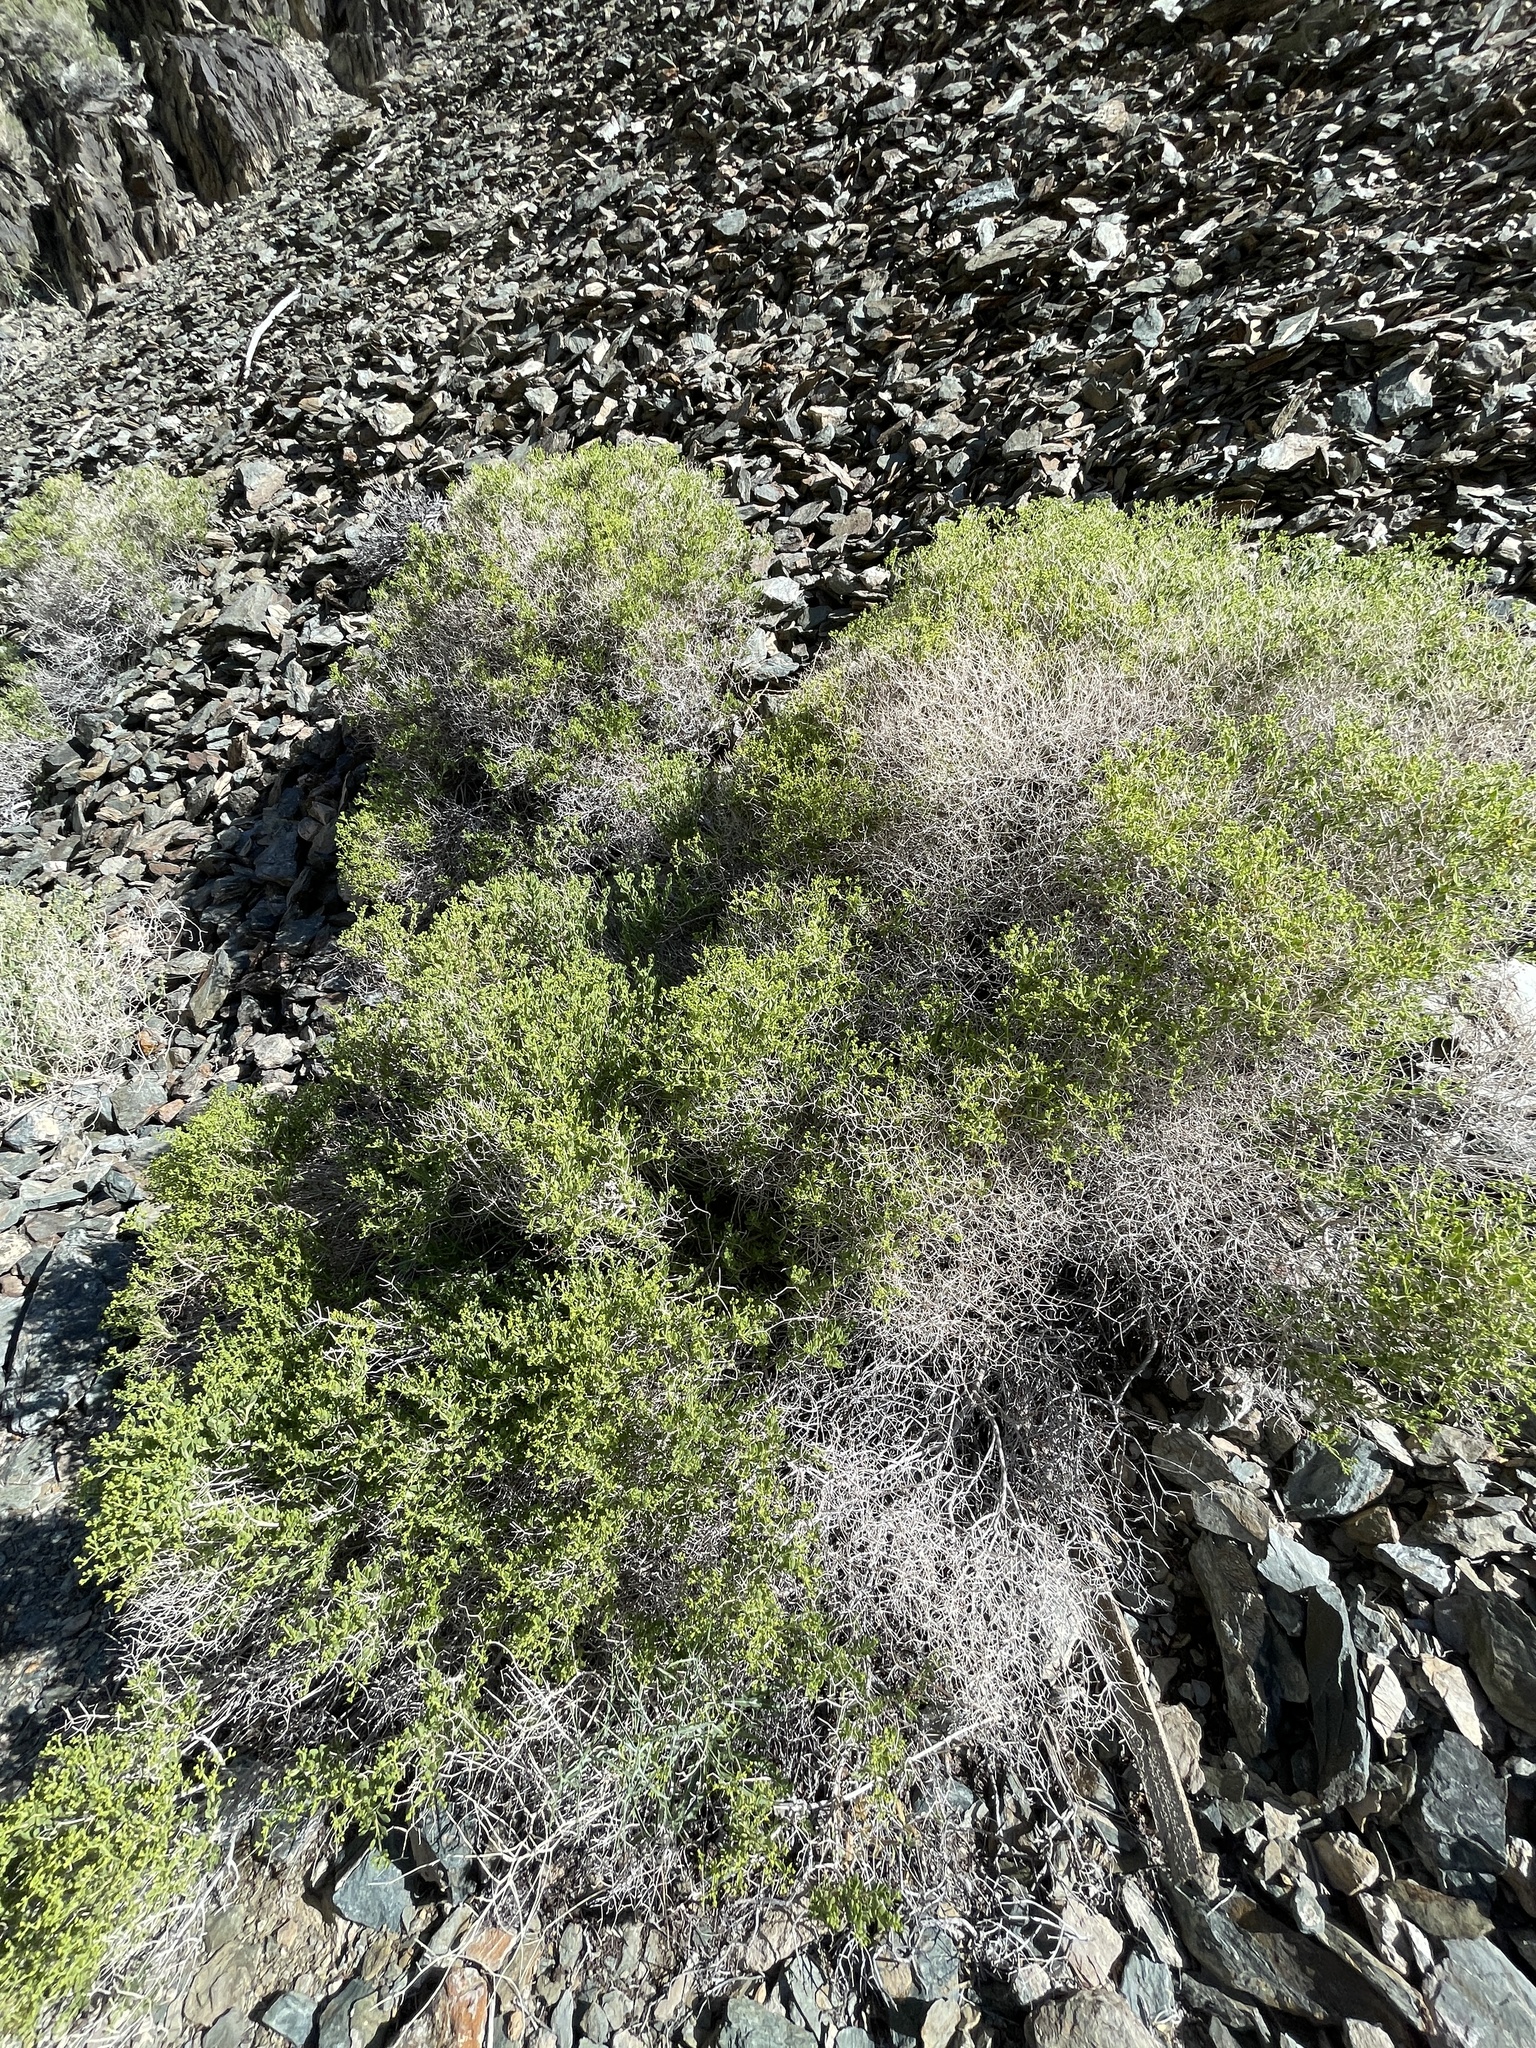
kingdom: Plantae
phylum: Tracheophyta
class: Magnoliopsida
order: Caryophyllales
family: Polygonaceae
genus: Dedeckera
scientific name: Dedeckera eurekensis
